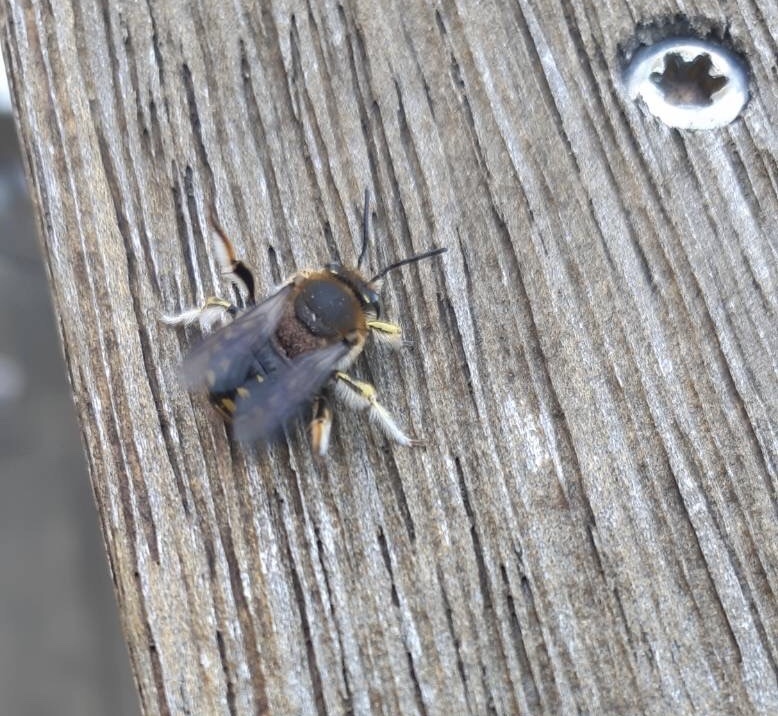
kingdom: Animalia
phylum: Arthropoda
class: Insecta
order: Hymenoptera
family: Megachilidae
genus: Anthidium
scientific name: Anthidium manicatum
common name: Wool carder bee
